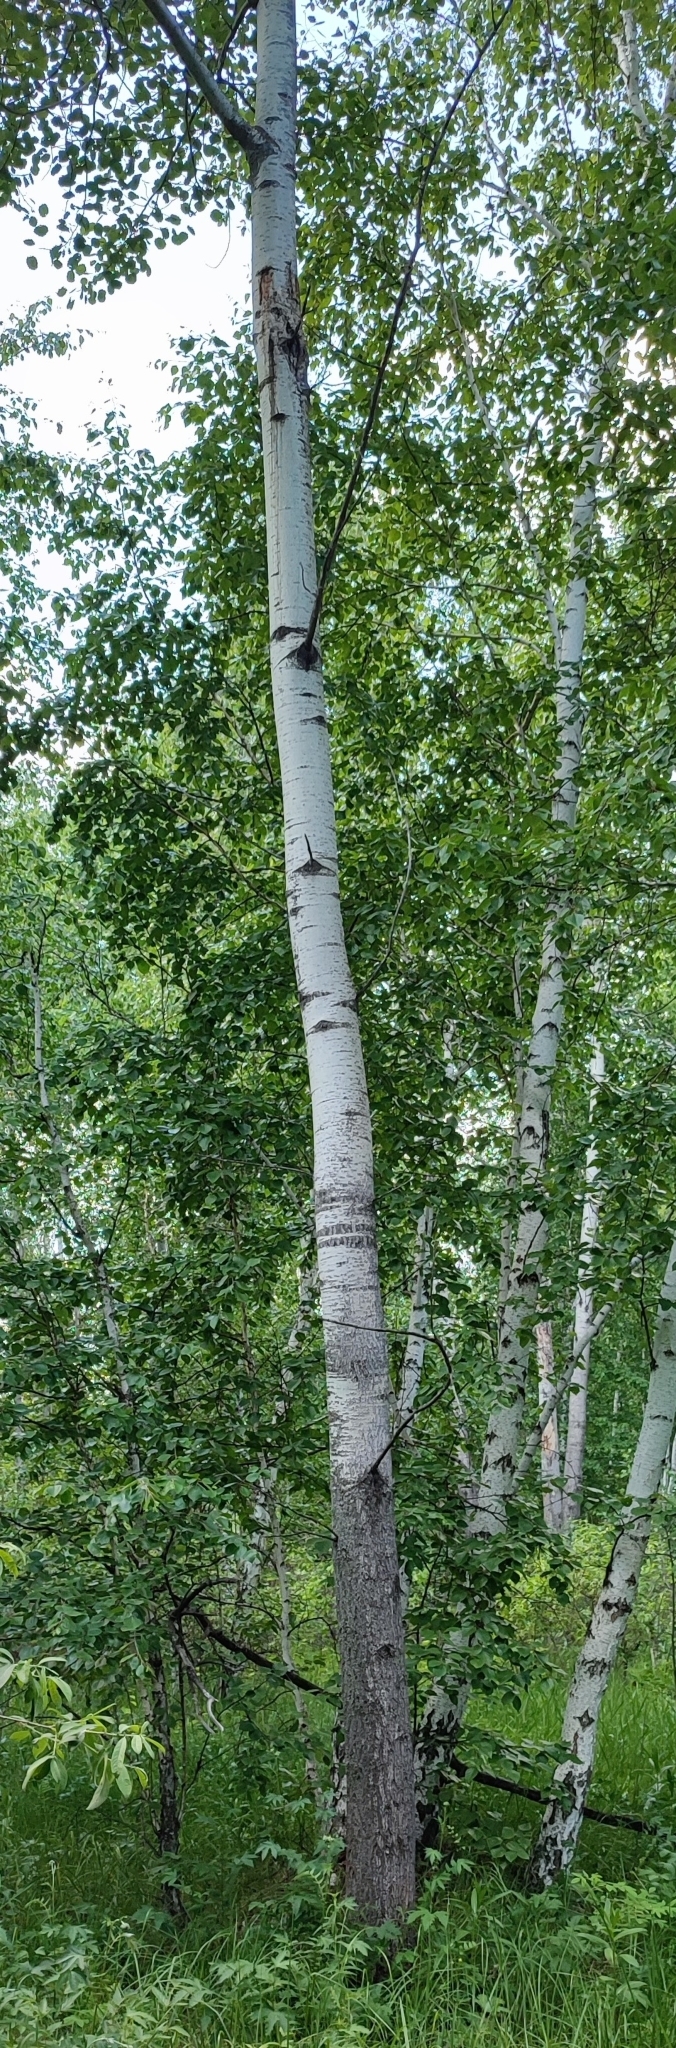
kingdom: Plantae
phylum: Tracheophyta
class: Magnoliopsida
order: Malpighiales
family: Salicaceae
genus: Populus
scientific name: Populus tremula
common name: European aspen
